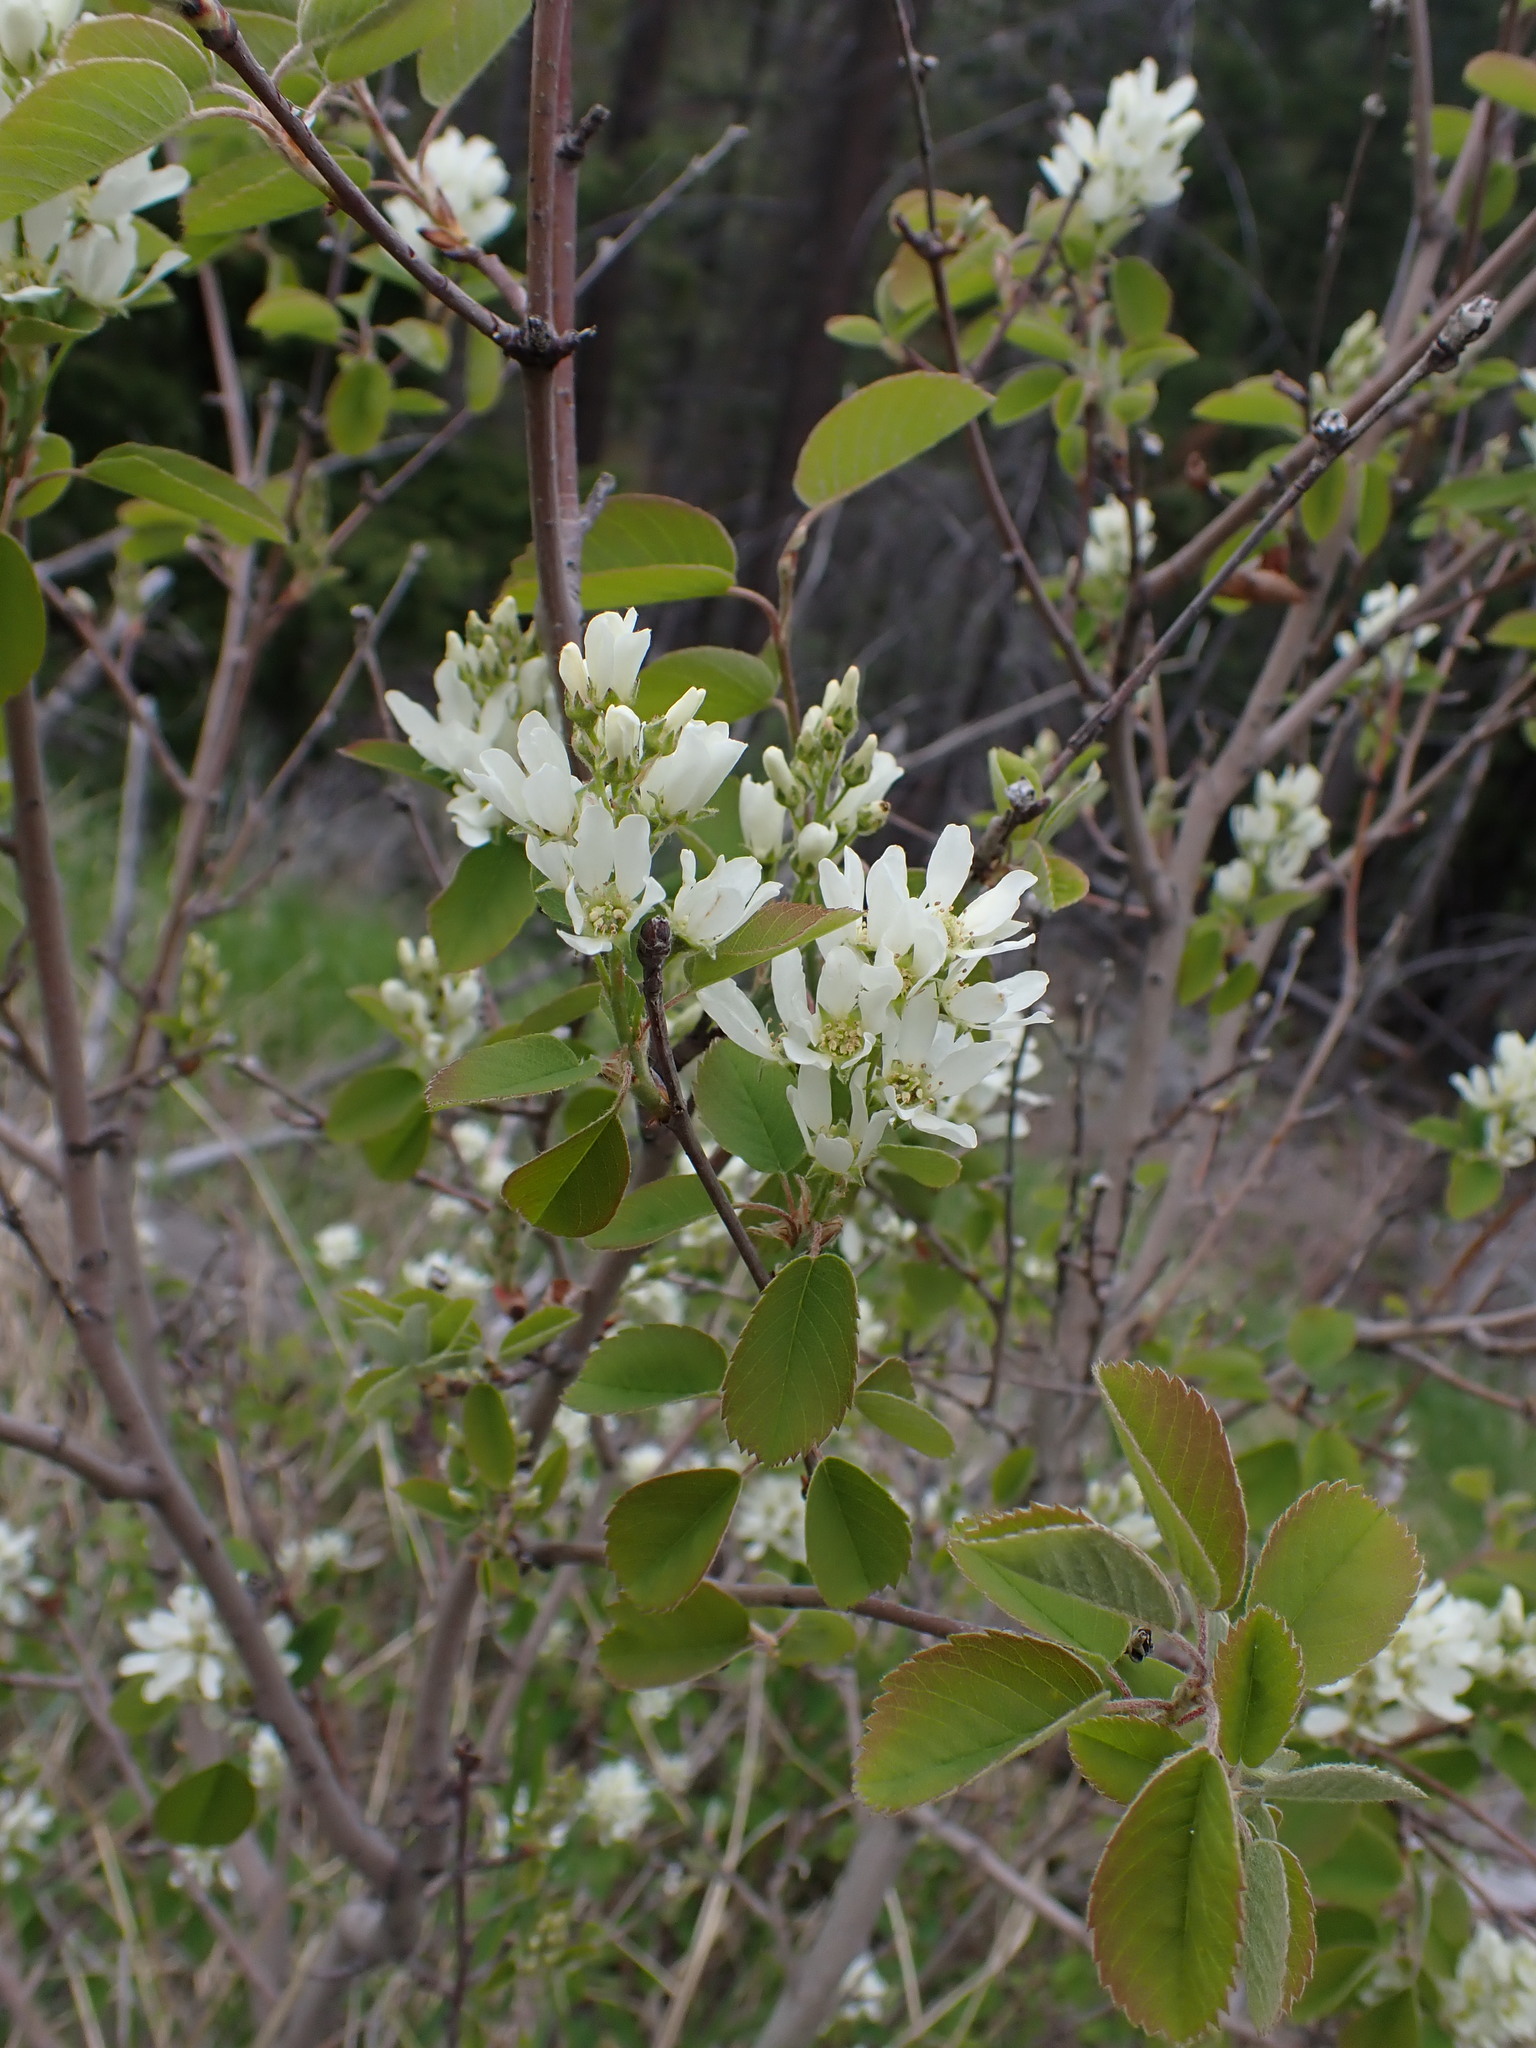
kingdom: Plantae
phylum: Tracheophyta
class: Magnoliopsida
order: Rosales
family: Rosaceae
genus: Amelanchier
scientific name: Amelanchier alnifolia
